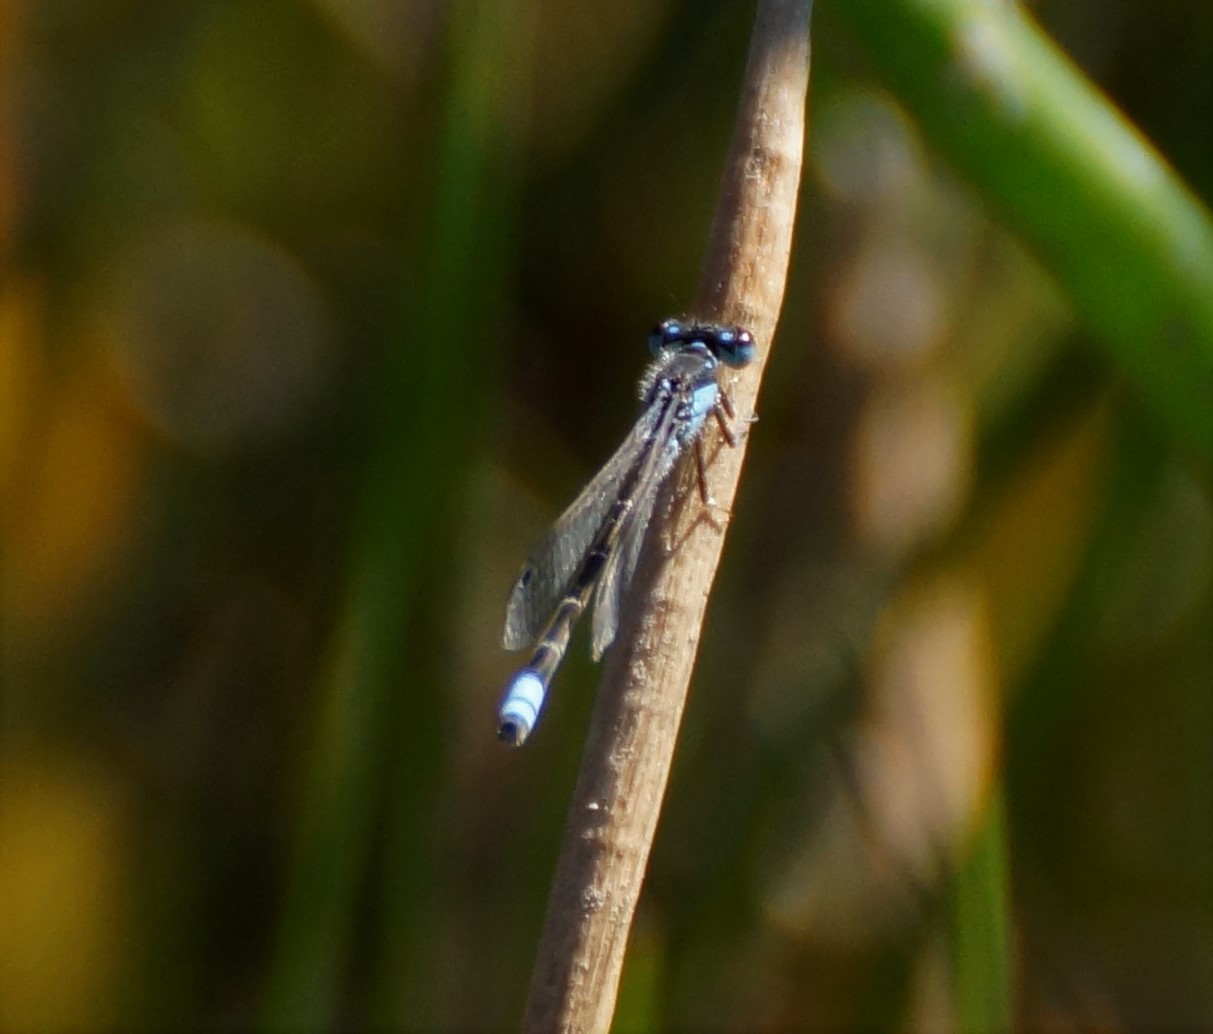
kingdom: Animalia
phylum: Arthropoda
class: Insecta
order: Odonata
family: Coenagrionidae
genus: Ischnura
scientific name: Ischnura heterosticta
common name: Common bluetail
